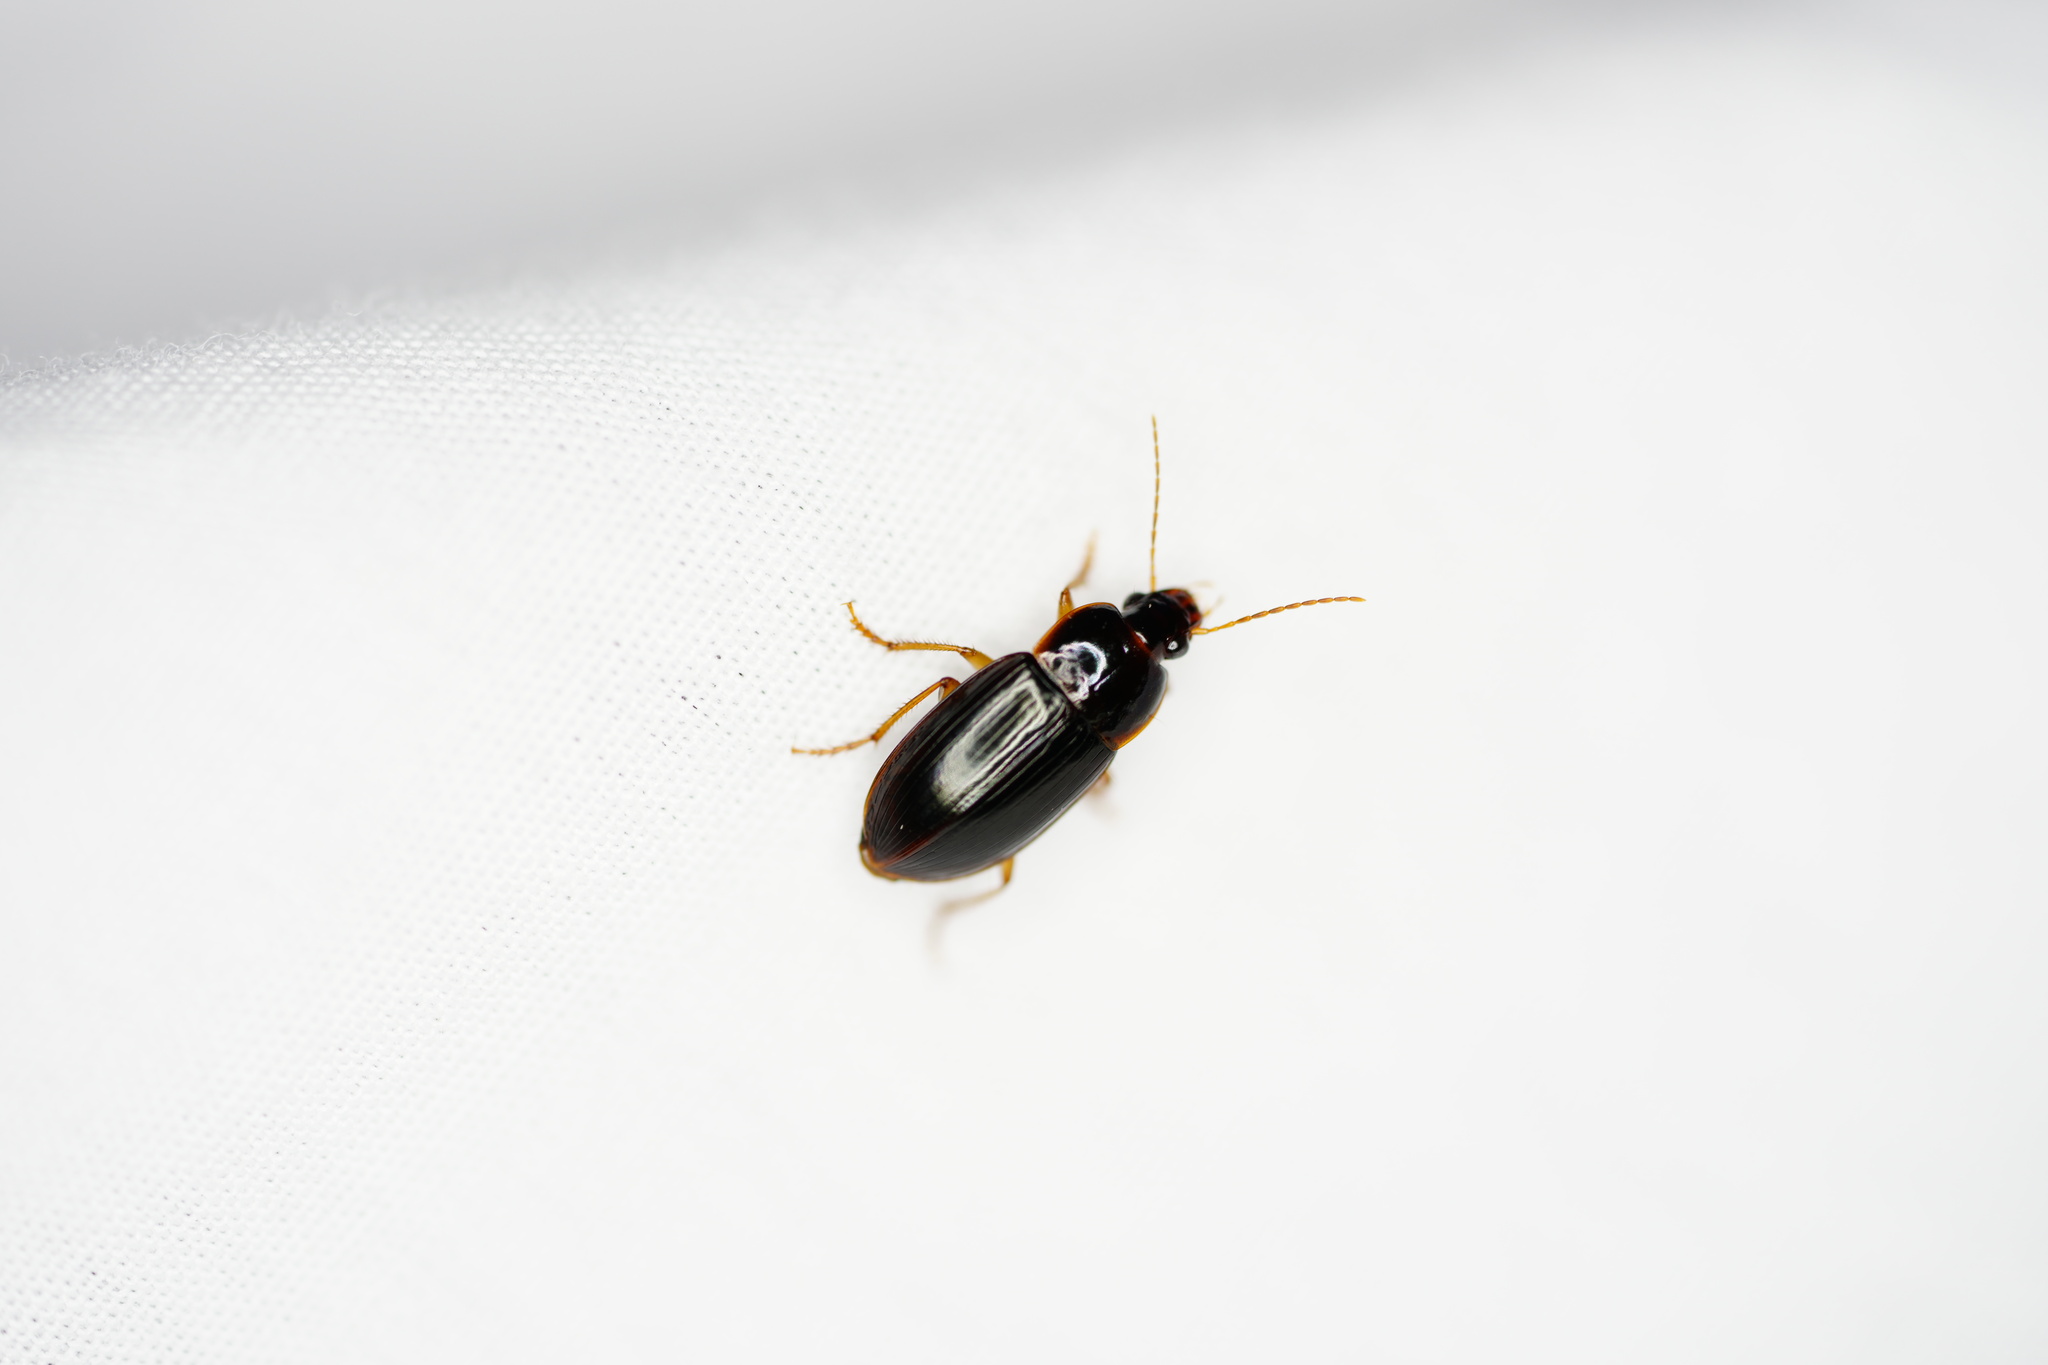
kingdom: Animalia
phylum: Arthropoda
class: Insecta
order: Coleoptera
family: Carabidae
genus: Notiobia
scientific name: Notiobia terminata
